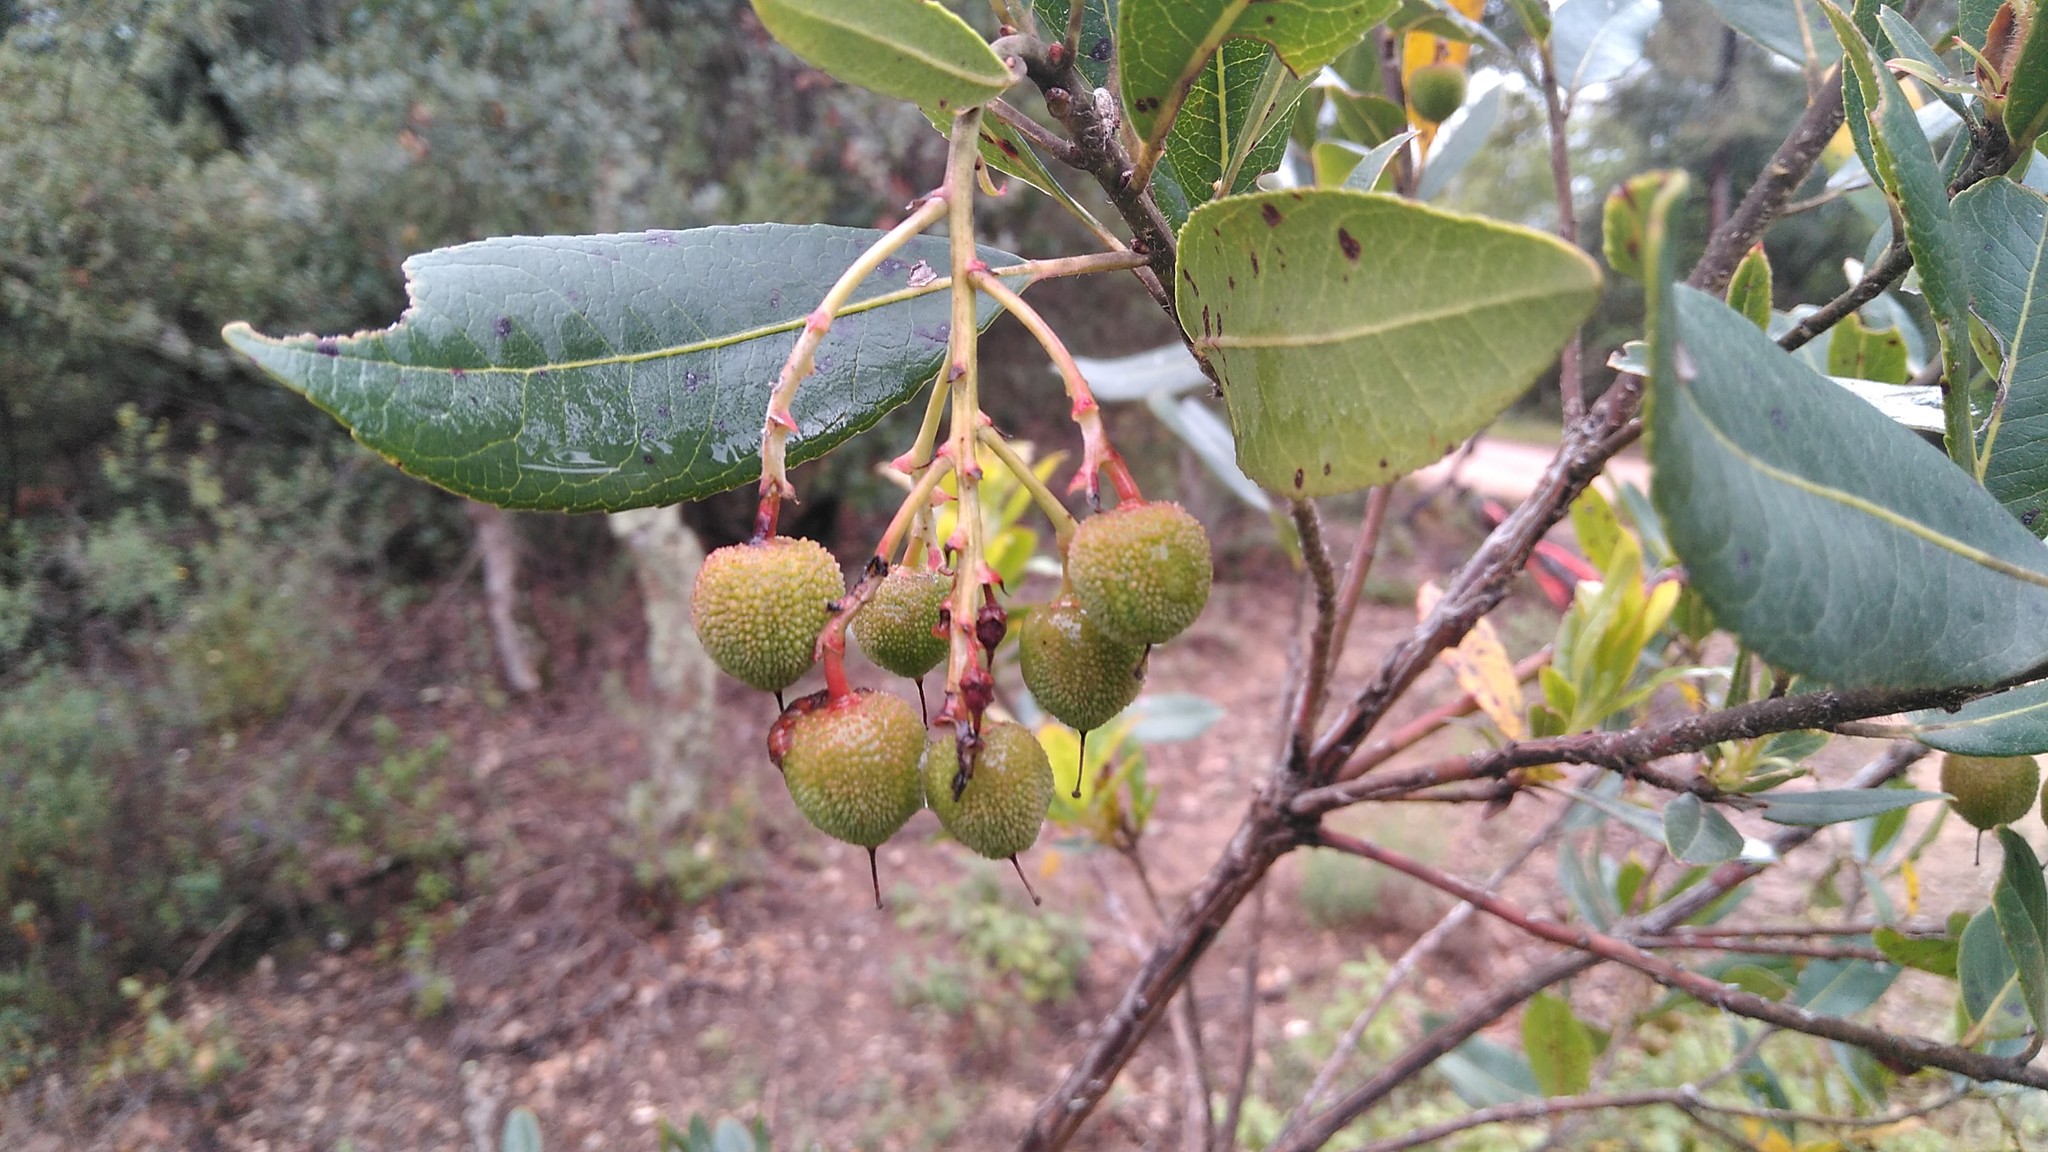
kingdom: Plantae
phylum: Tracheophyta
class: Magnoliopsida
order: Ericales
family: Ericaceae
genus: Arbutus
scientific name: Arbutus unedo
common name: Strawberry-tree
